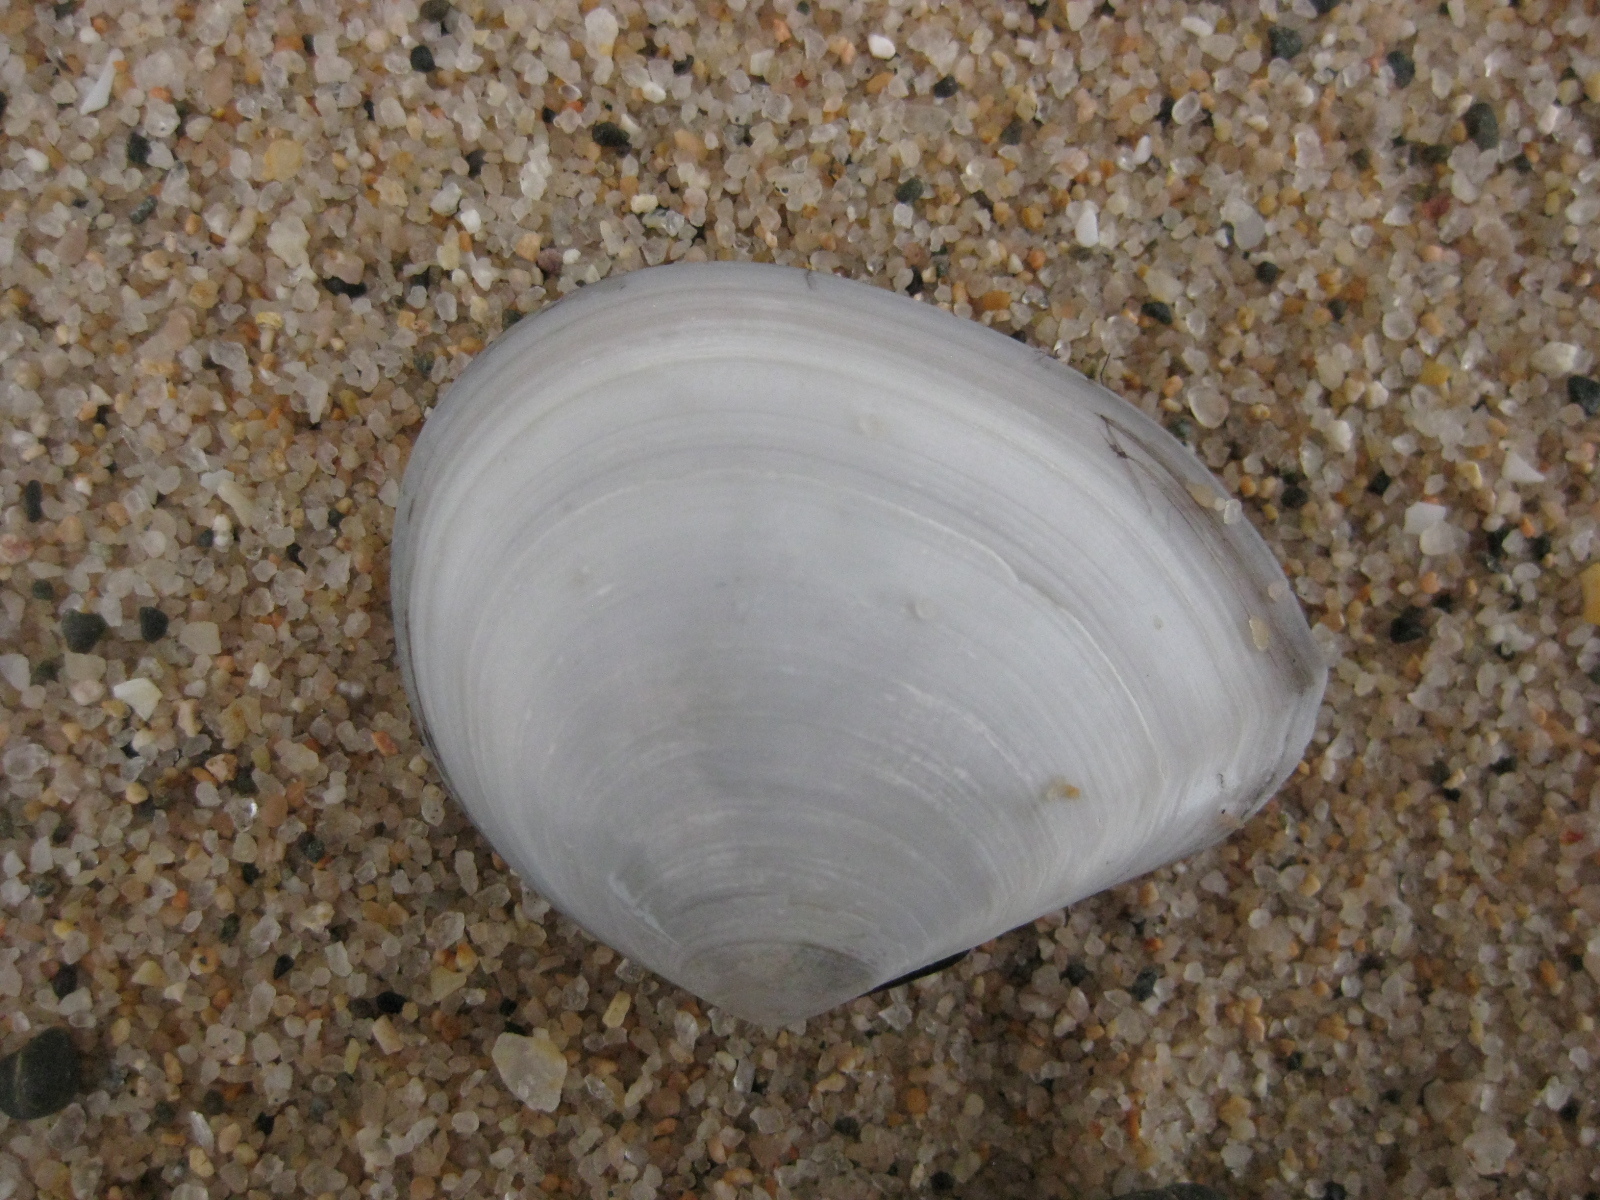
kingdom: Animalia
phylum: Mollusca
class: Bivalvia
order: Cardiida
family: Tellinidae
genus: Macomona
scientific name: Macomona liliana
